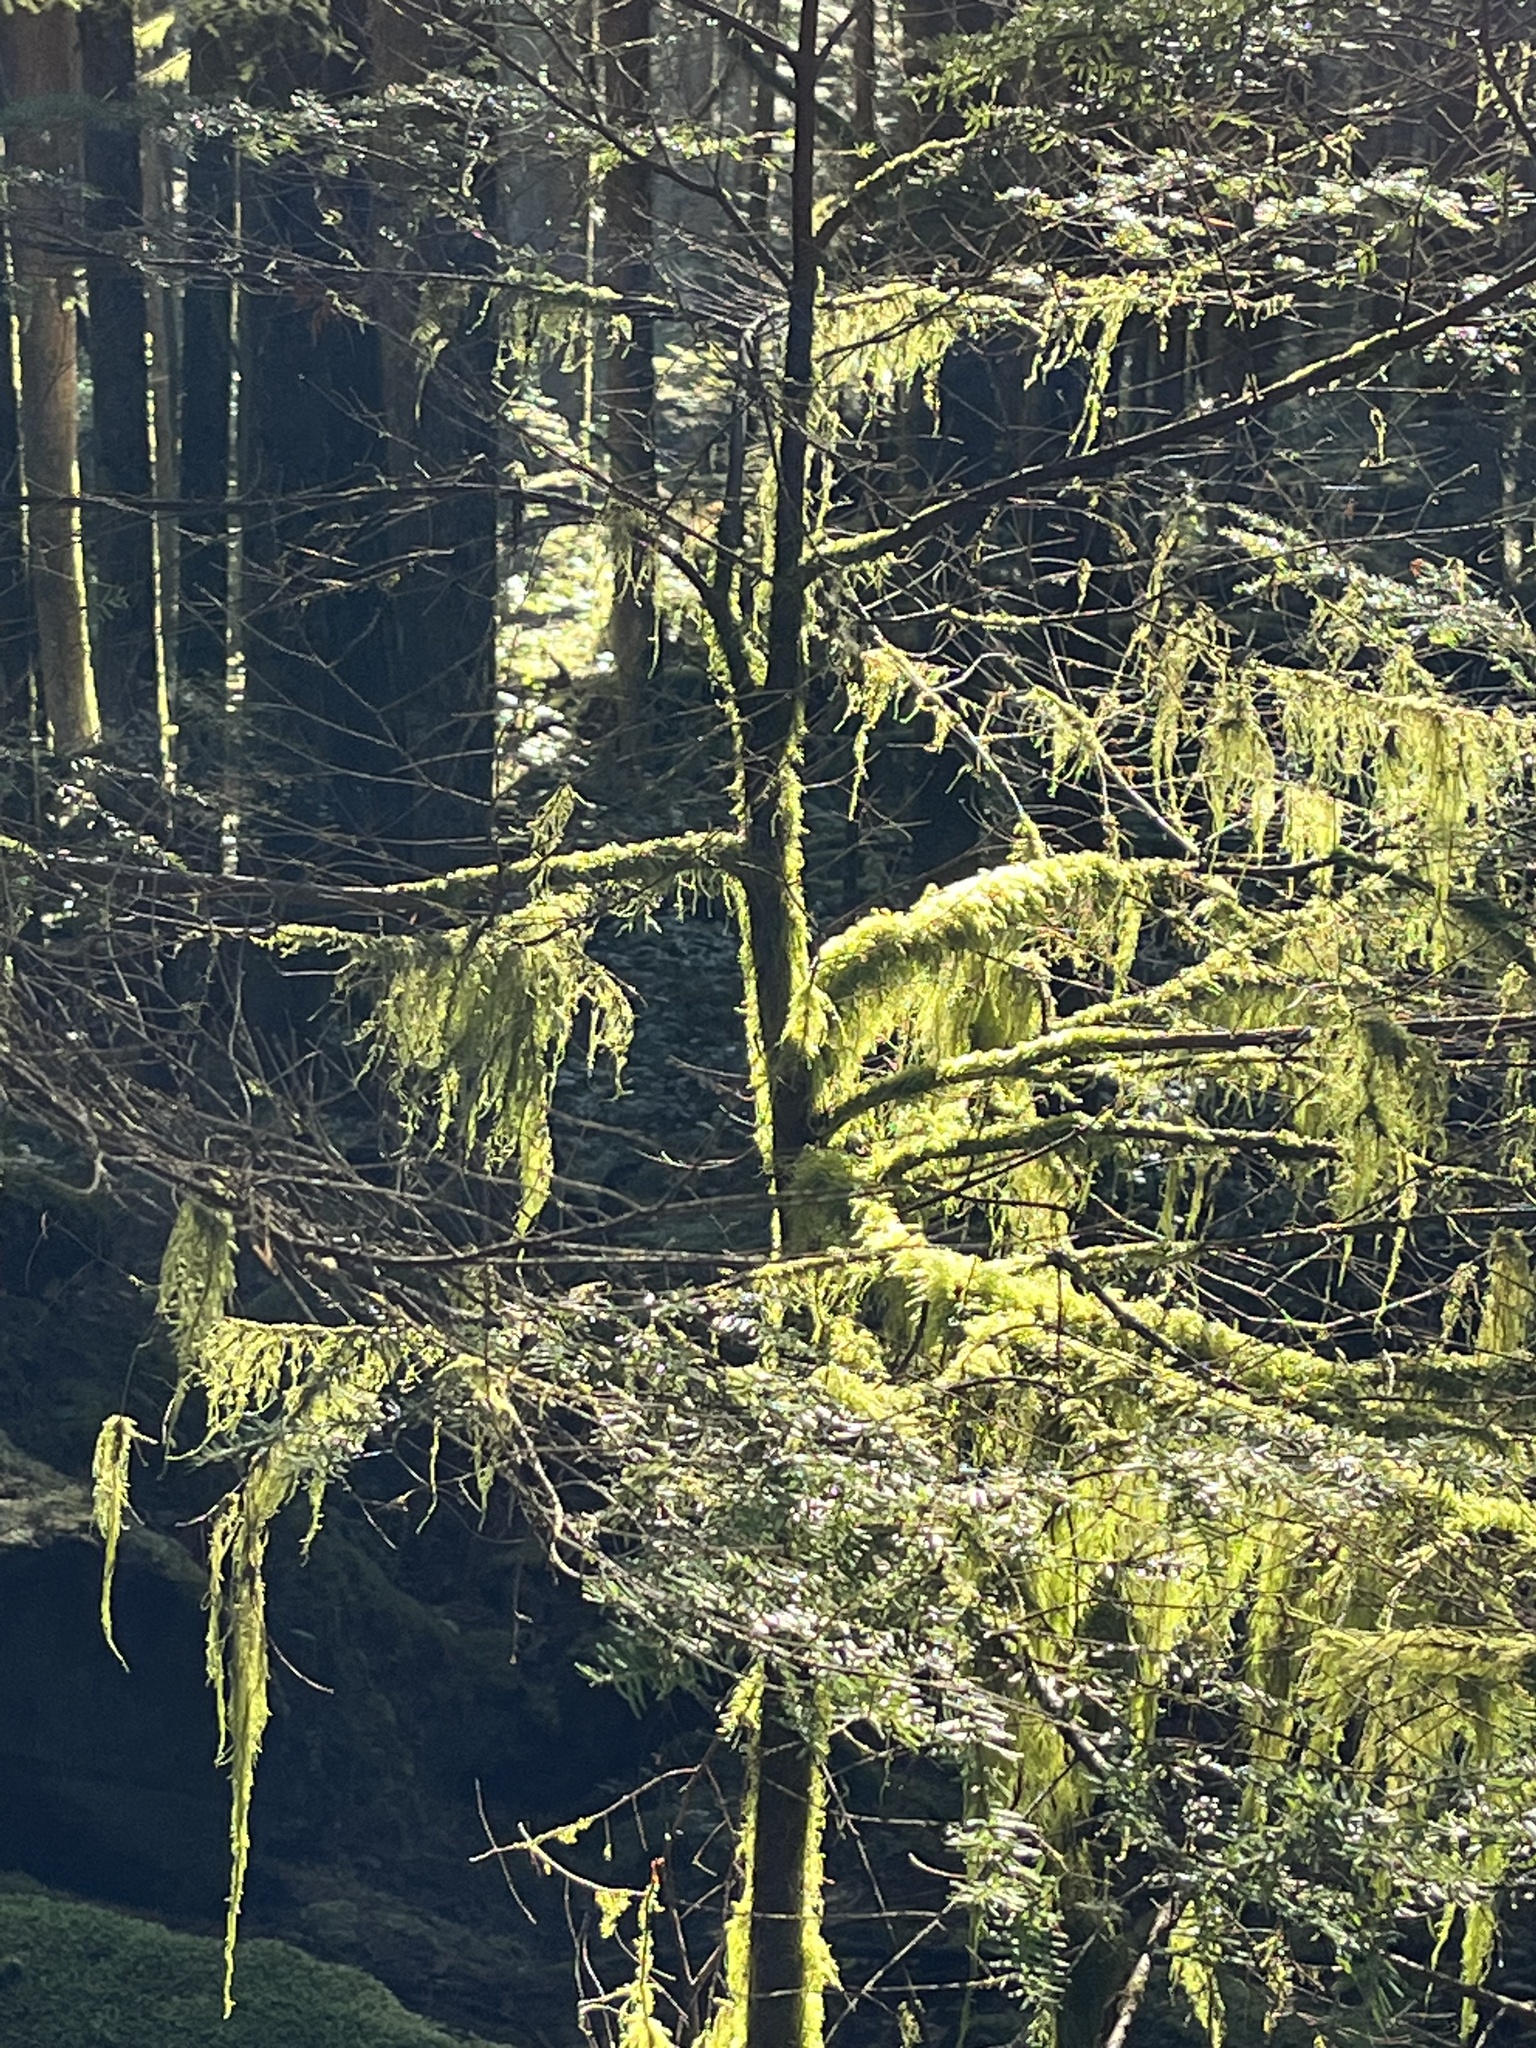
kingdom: Plantae
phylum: Bryophyta
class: Bryopsida
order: Hypnales
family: Lembophyllaceae
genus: Pseudisothecium
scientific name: Pseudisothecium stoloniferum
